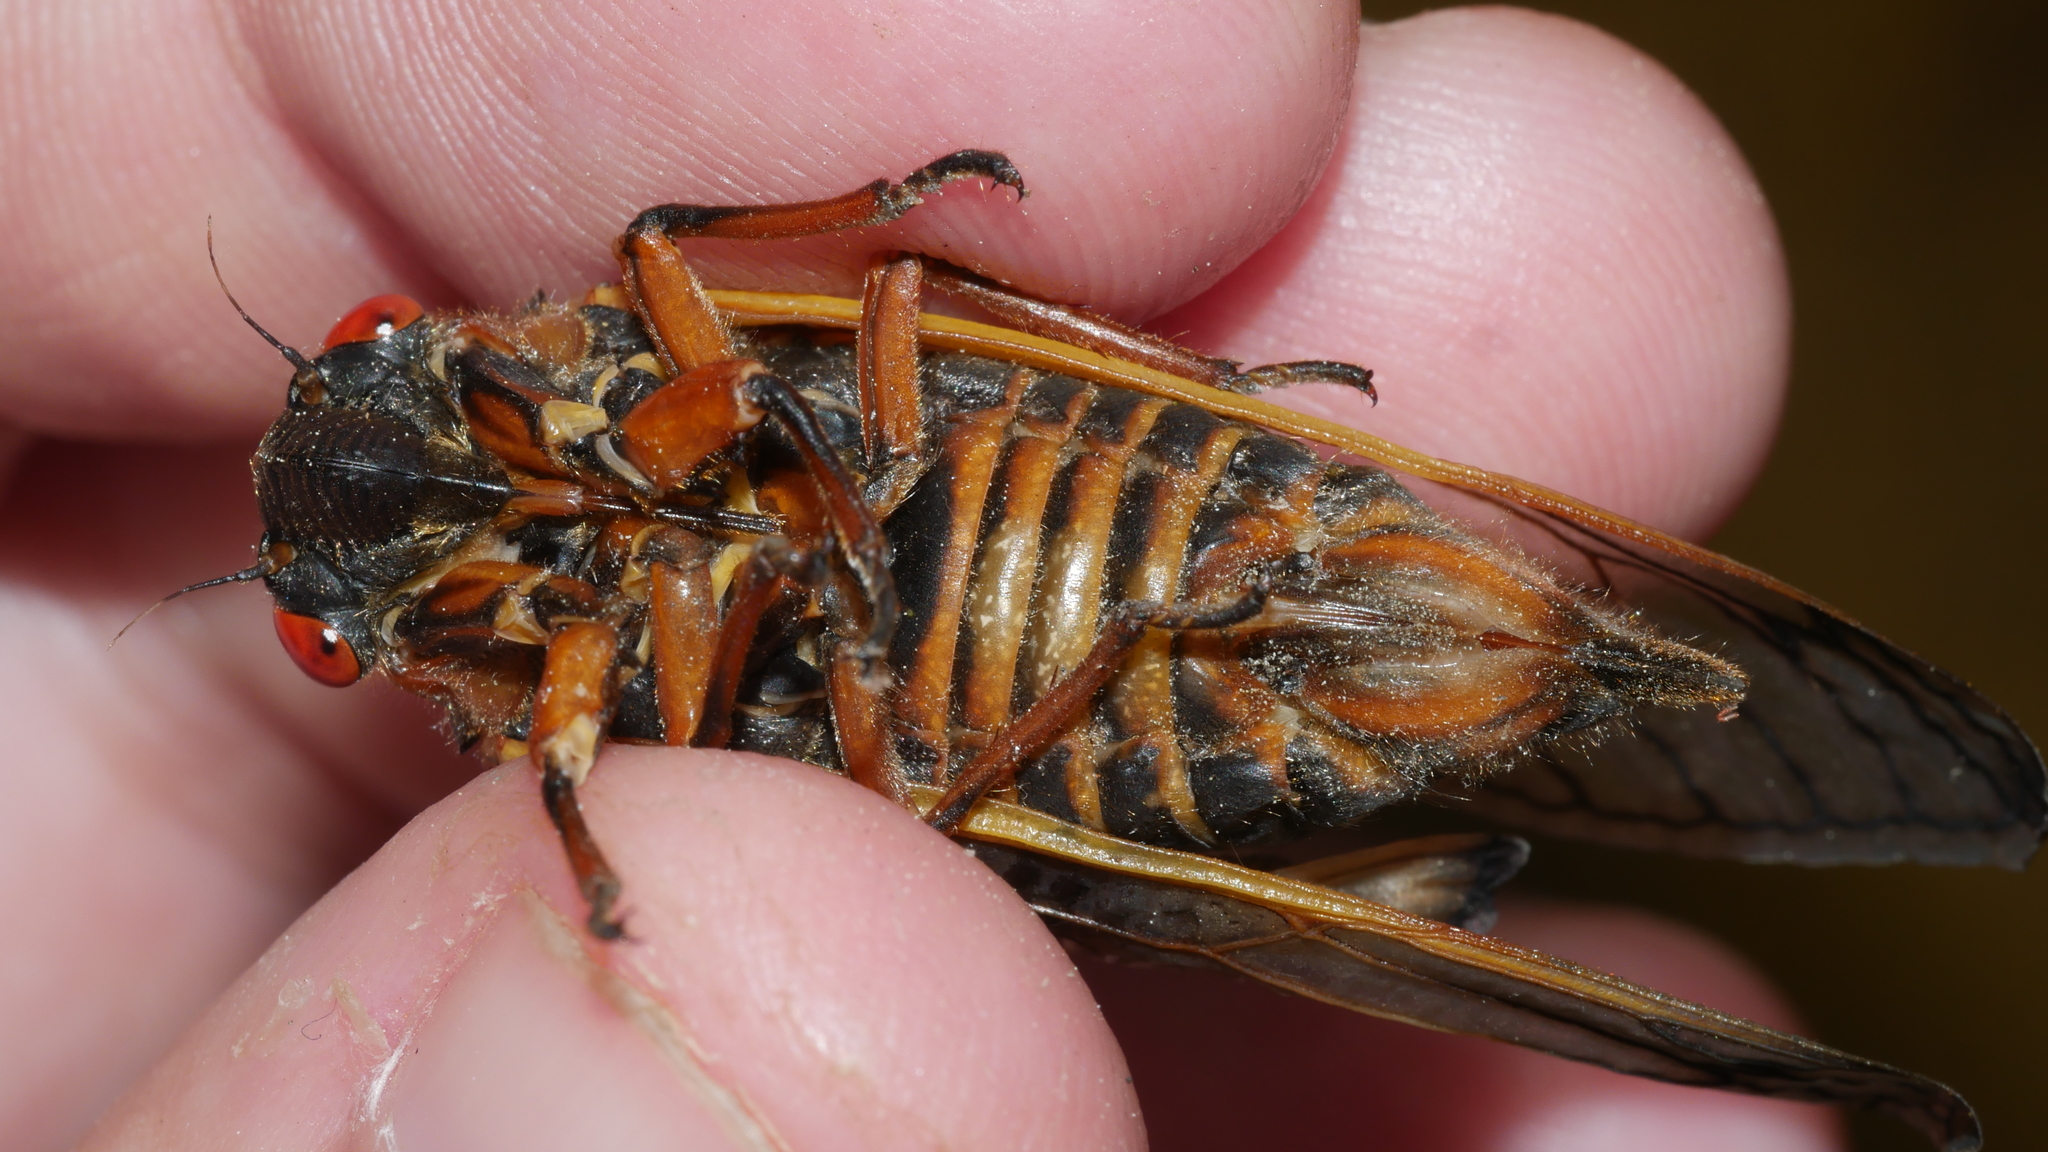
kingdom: Animalia
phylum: Arthropoda
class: Insecta
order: Hemiptera
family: Cicadidae
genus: Magicicada
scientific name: Magicicada septendecim
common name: Periodical cicada
